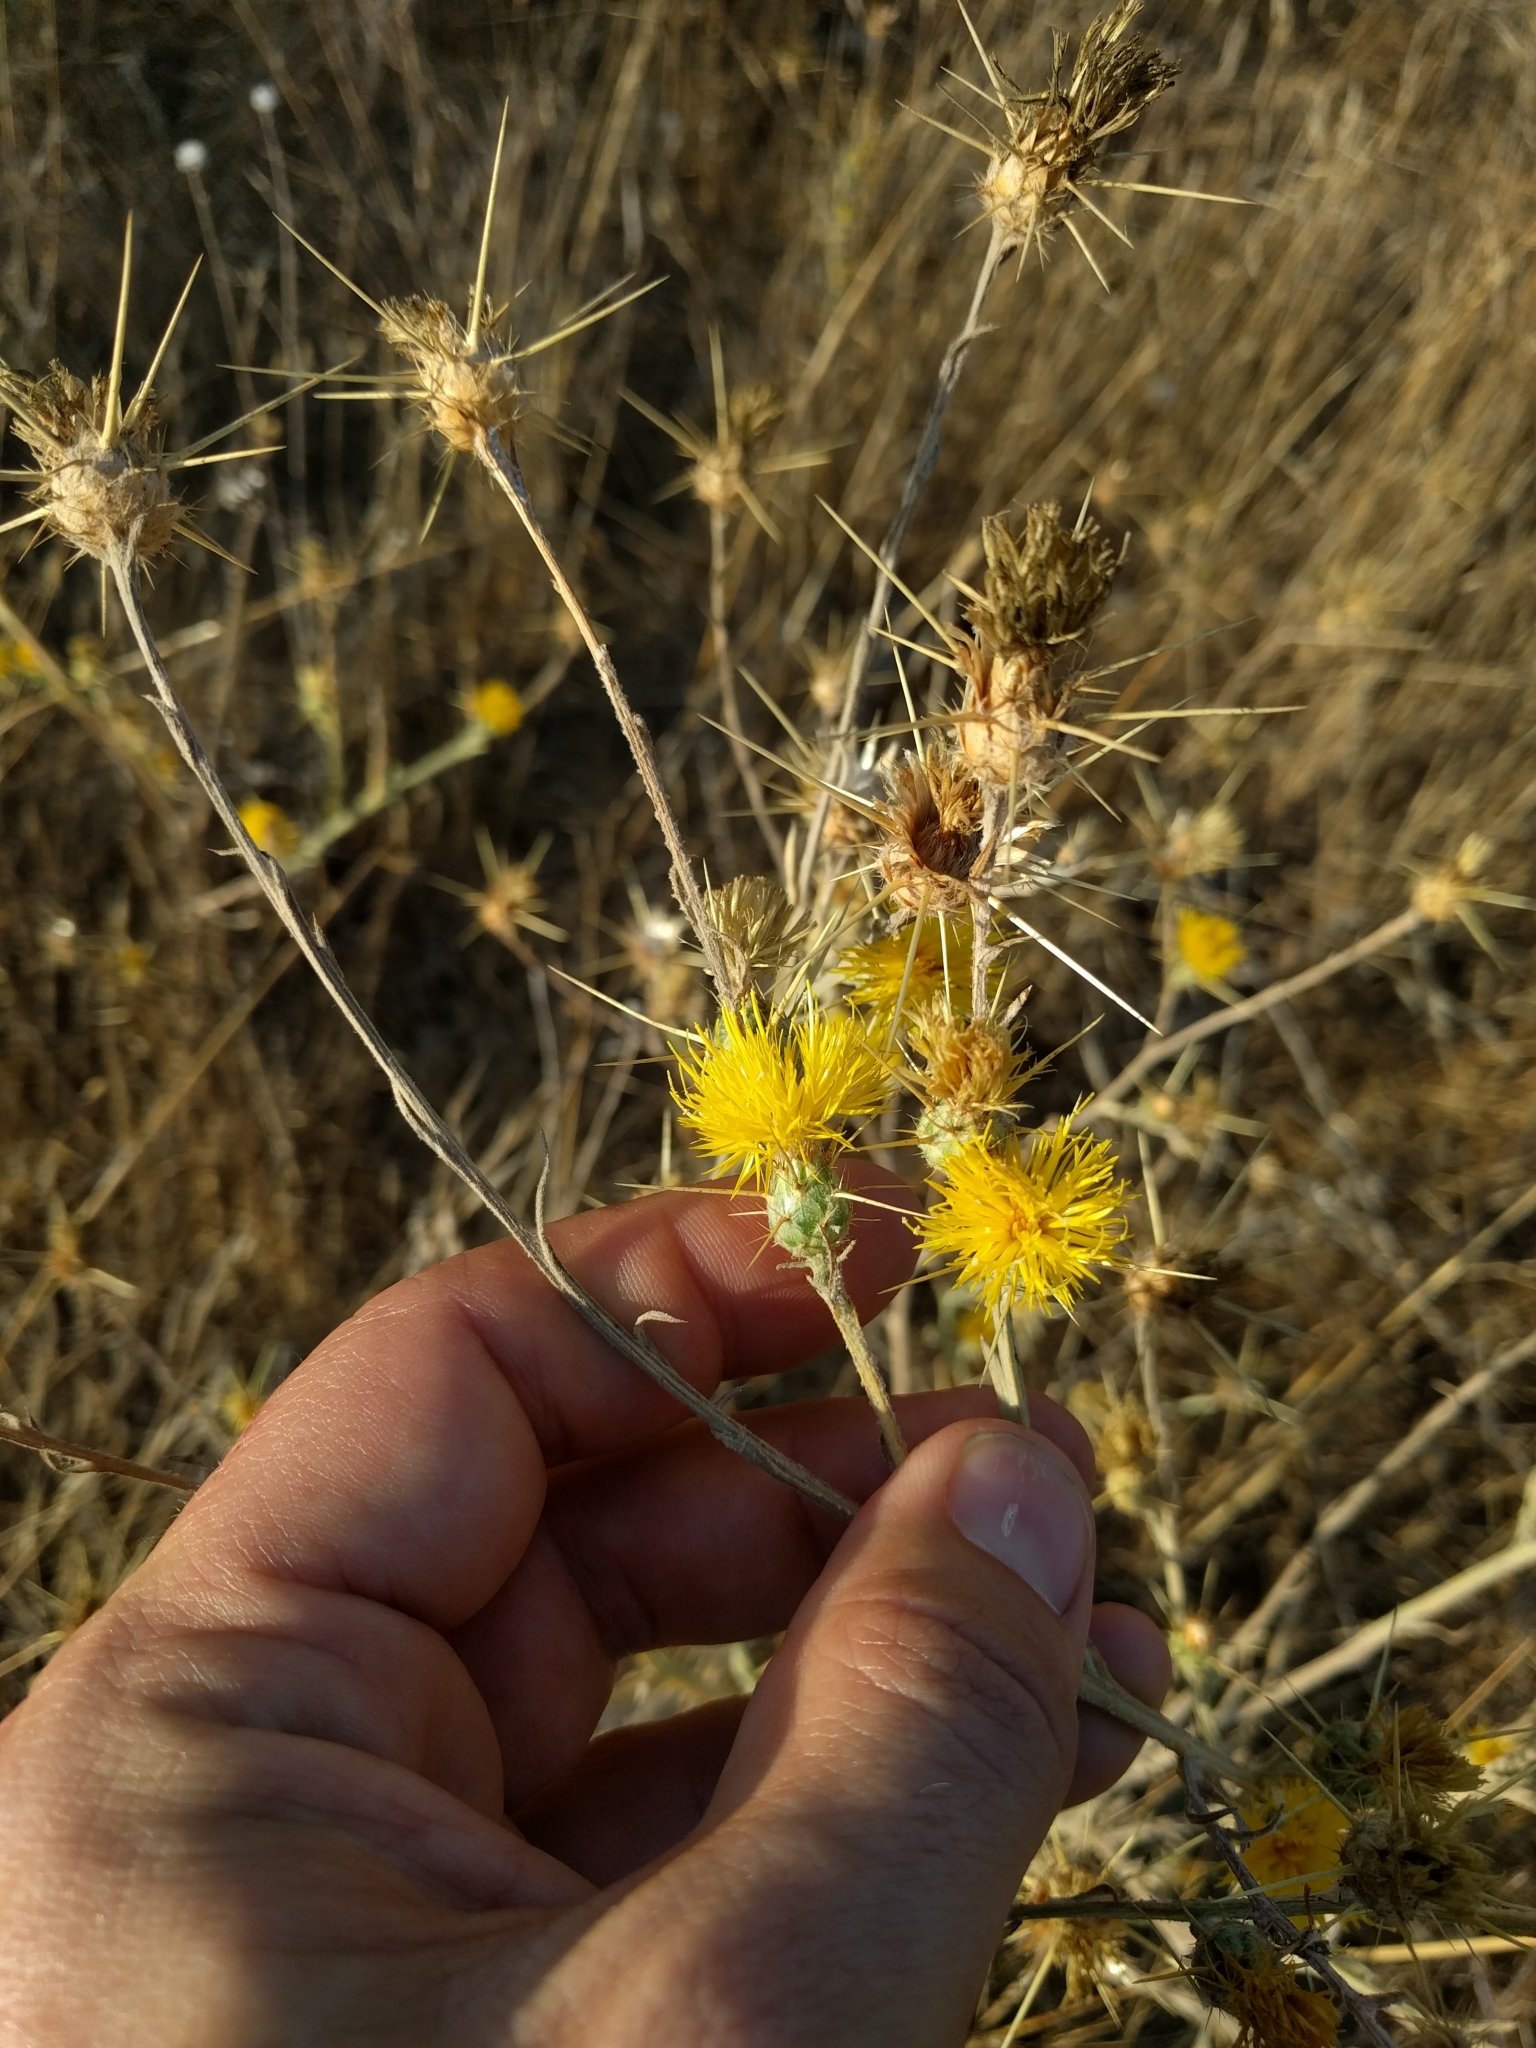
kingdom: Plantae
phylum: Tracheophyta
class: Magnoliopsida
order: Asterales
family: Asteraceae
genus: Centaurea
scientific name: Centaurea solstitialis
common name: Yellow star-thistle
